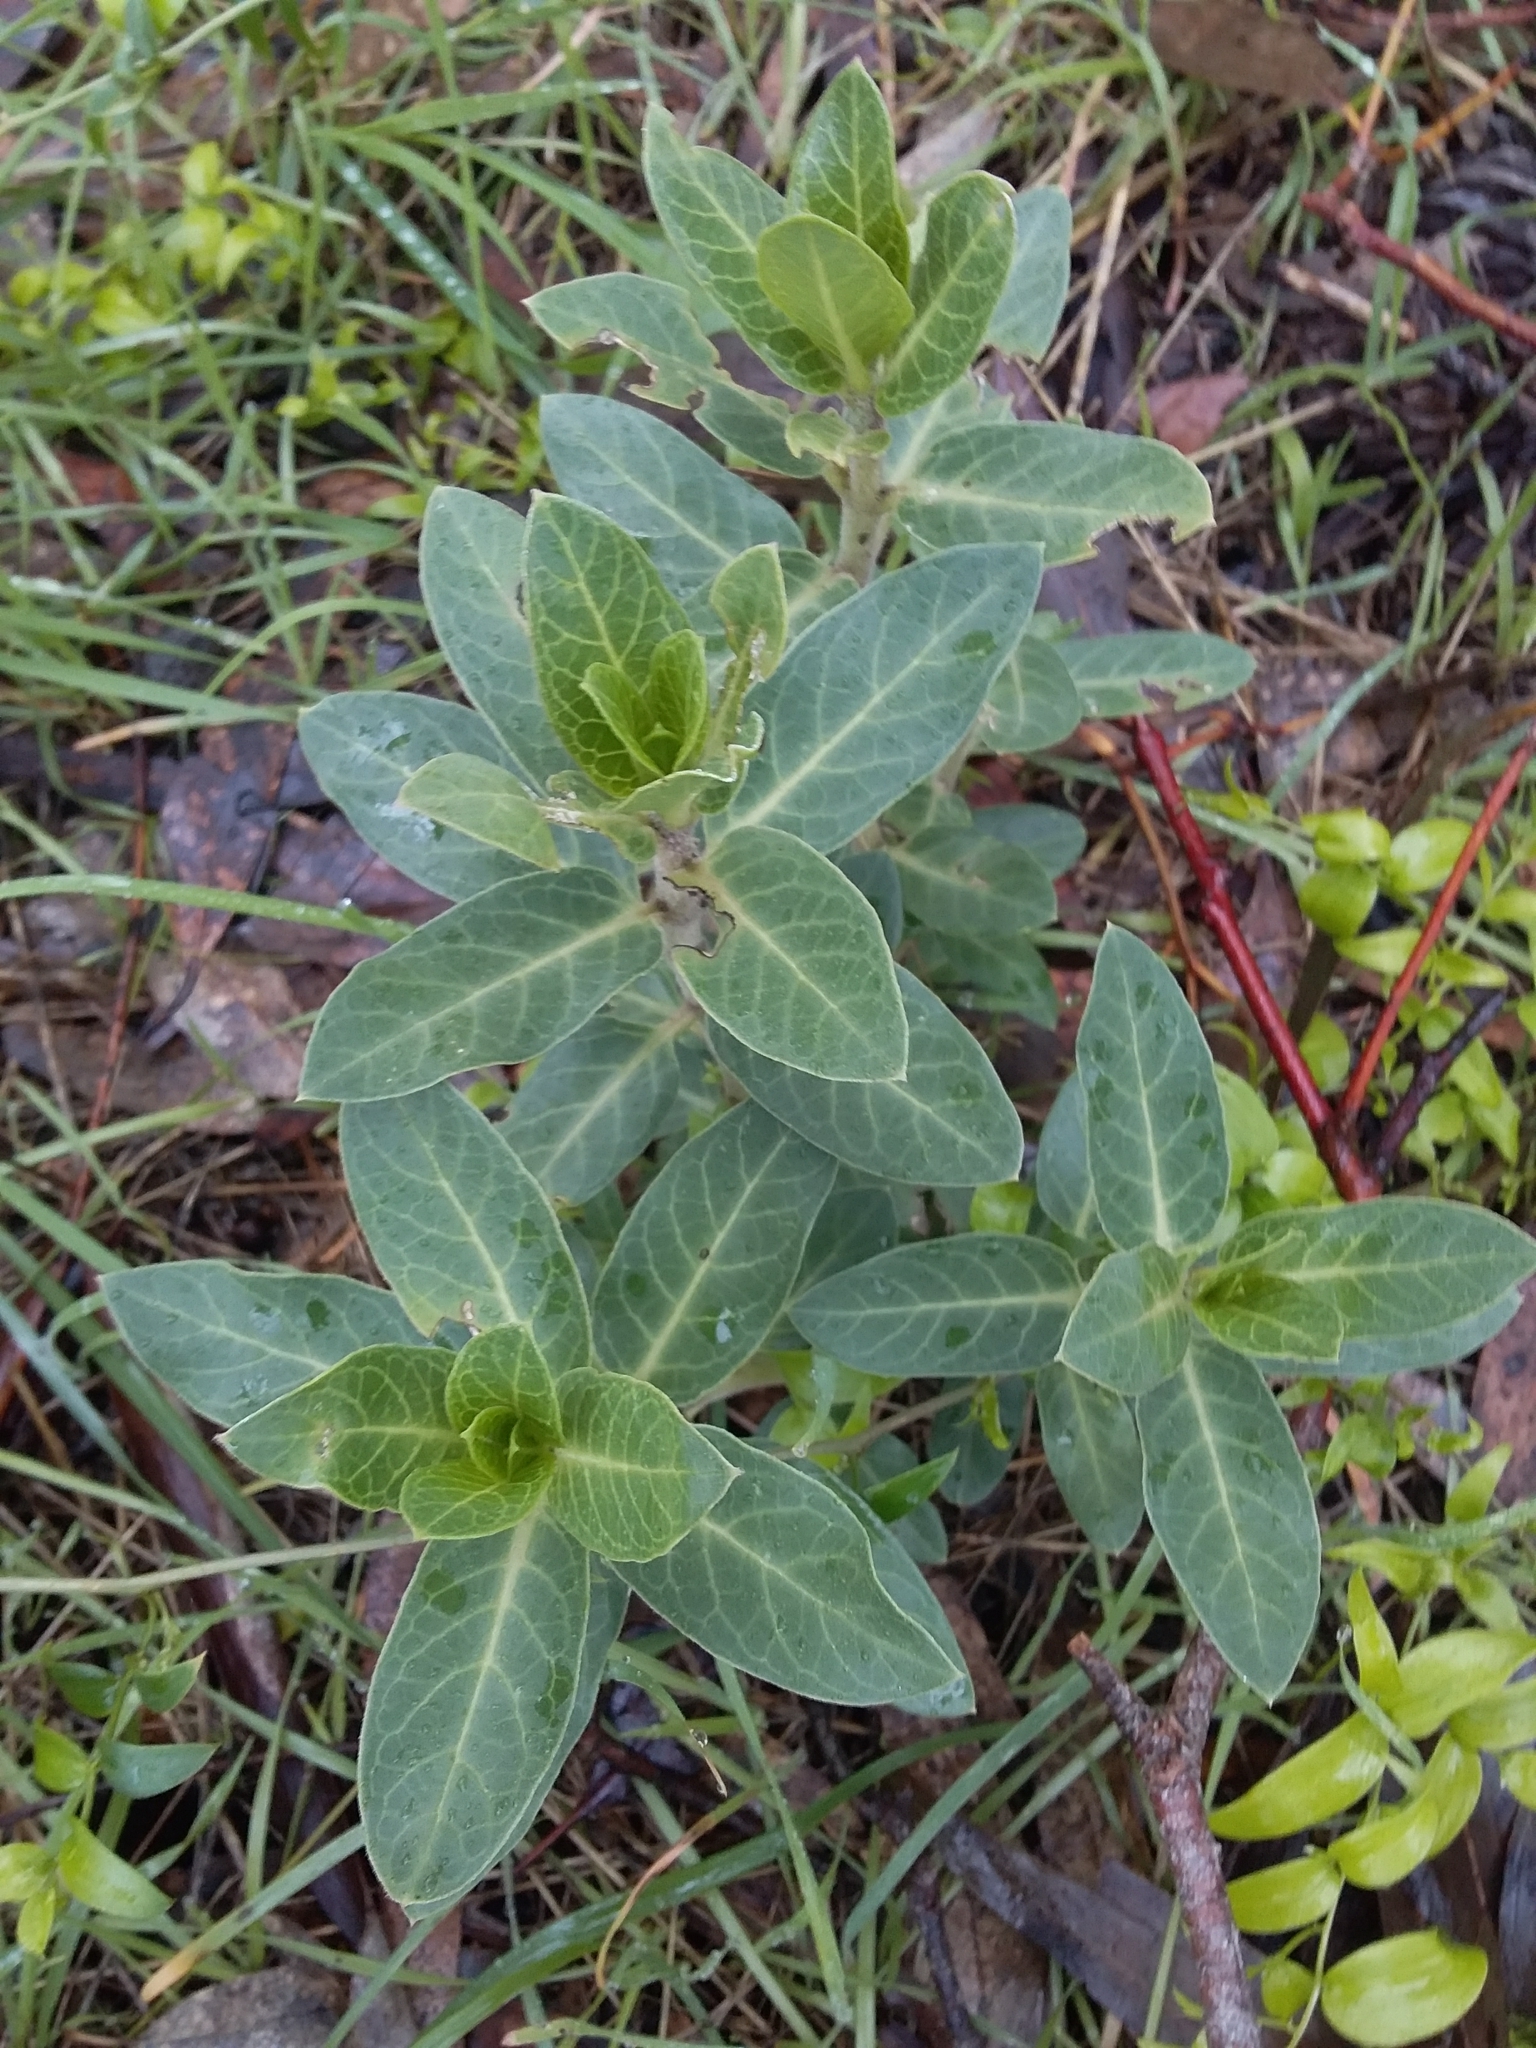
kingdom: Plantae
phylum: Tracheophyta
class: Magnoliopsida
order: Gentianales
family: Apocynaceae
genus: Gomphocarpus
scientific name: Gomphocarpus cancellatus
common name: Wild cotton
